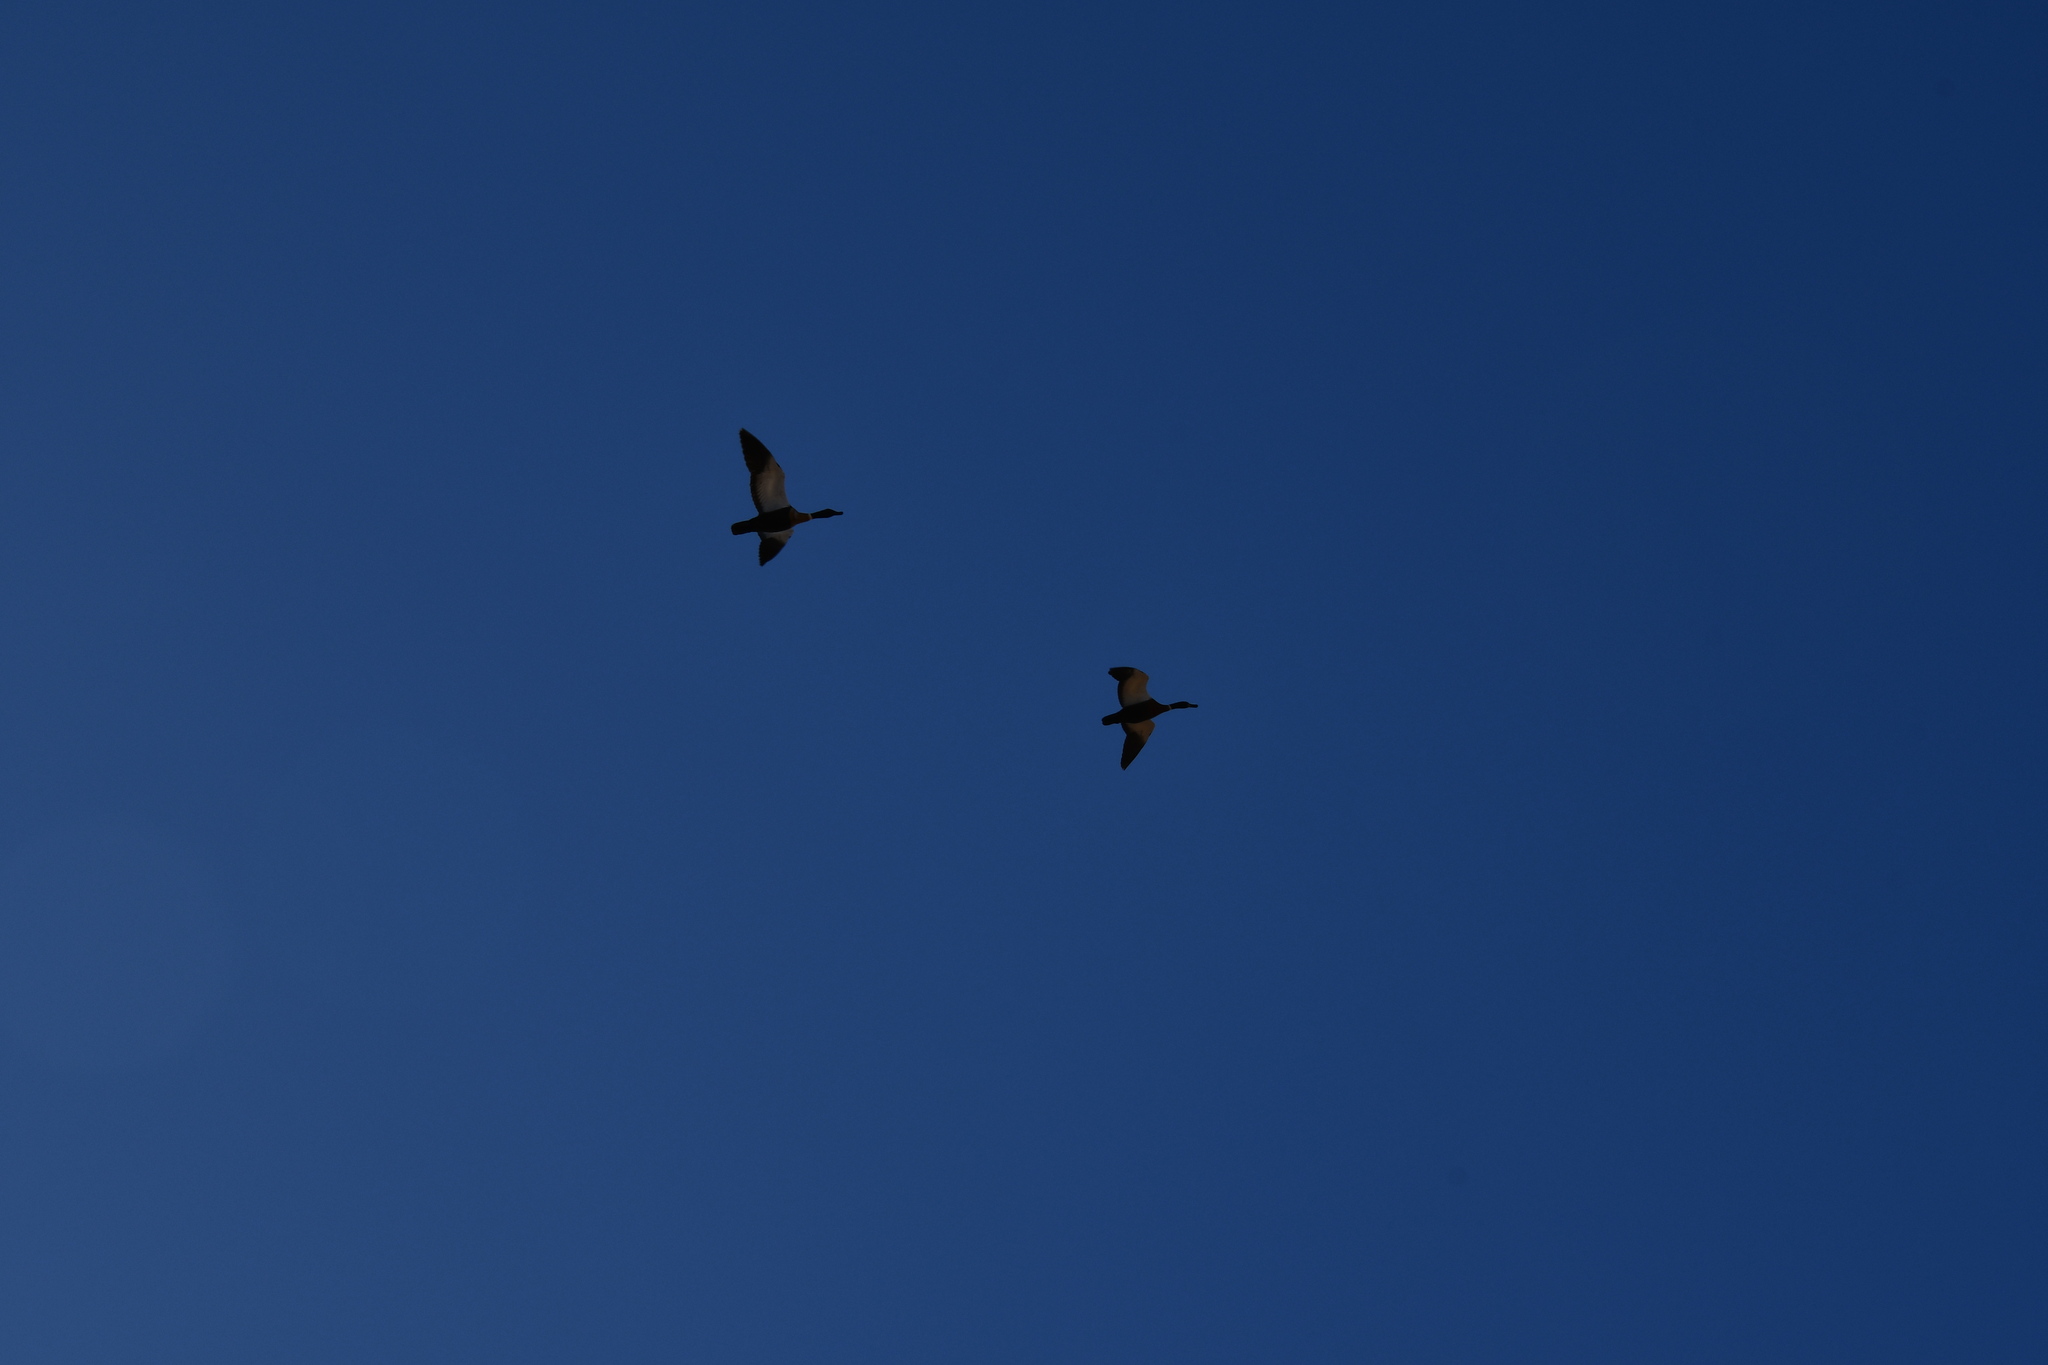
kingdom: Animalia
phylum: Chordata
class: Aves
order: Anseriformes
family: Anatidae
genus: Tadorna
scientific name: Tadorna tadornoides
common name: Australian shelduck
